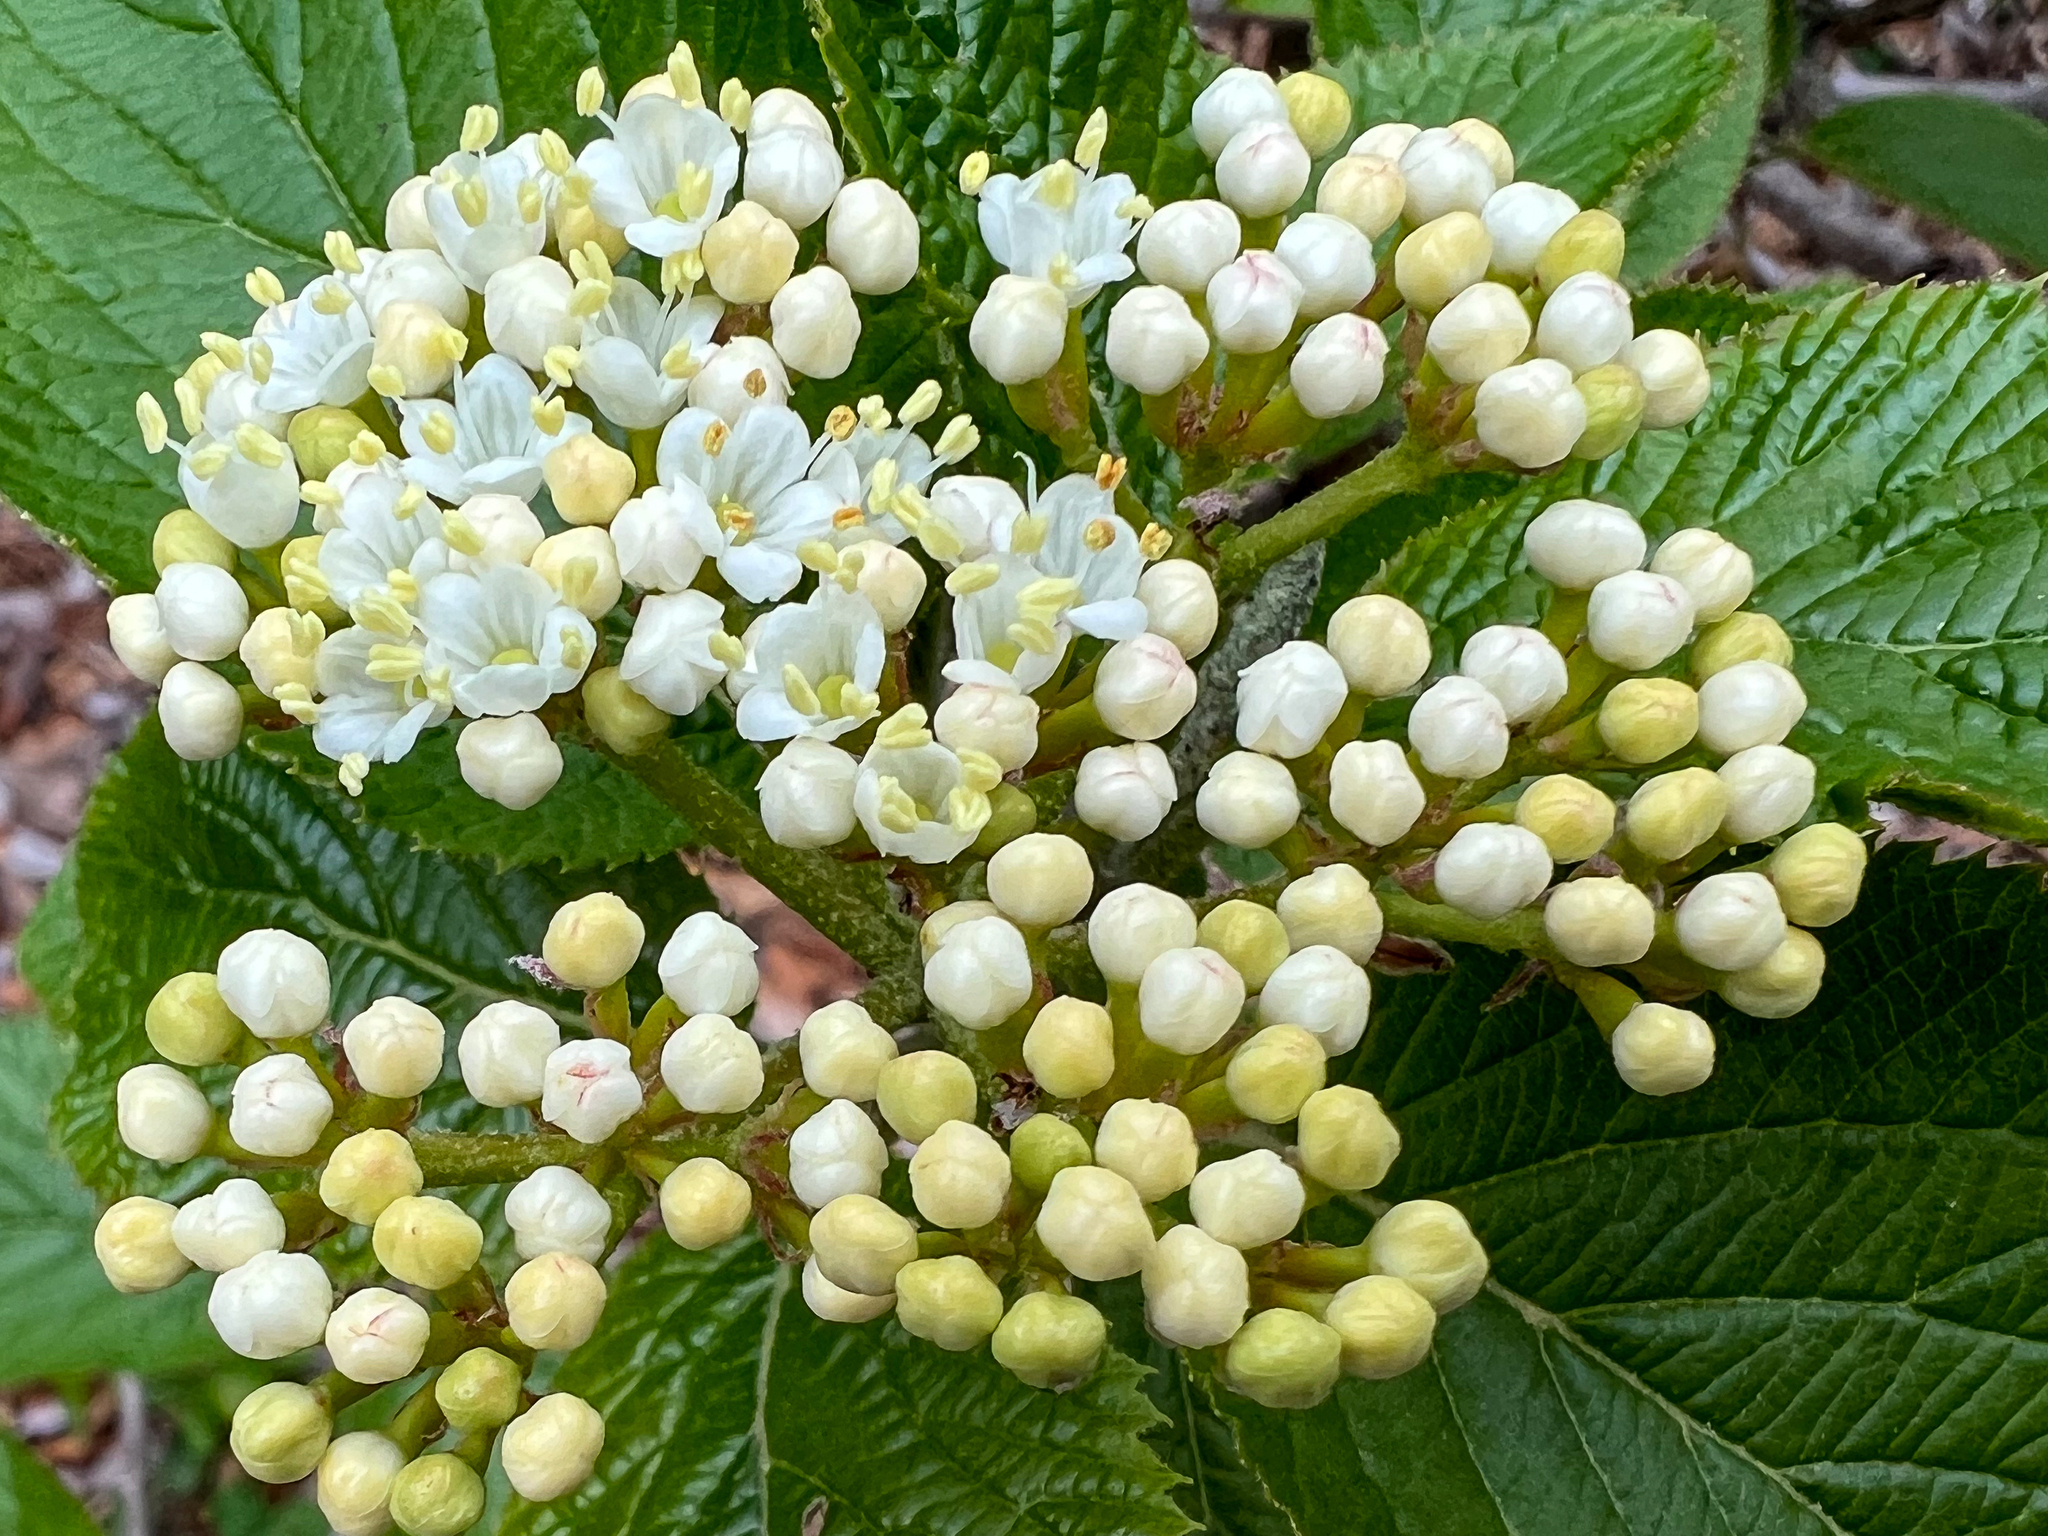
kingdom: Plantae
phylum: Tracheophyta
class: Magnoliopsida
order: Dipsacales
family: Viburnaceae
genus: Viburnum
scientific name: Viburnum lantana
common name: Wayfaring tree
